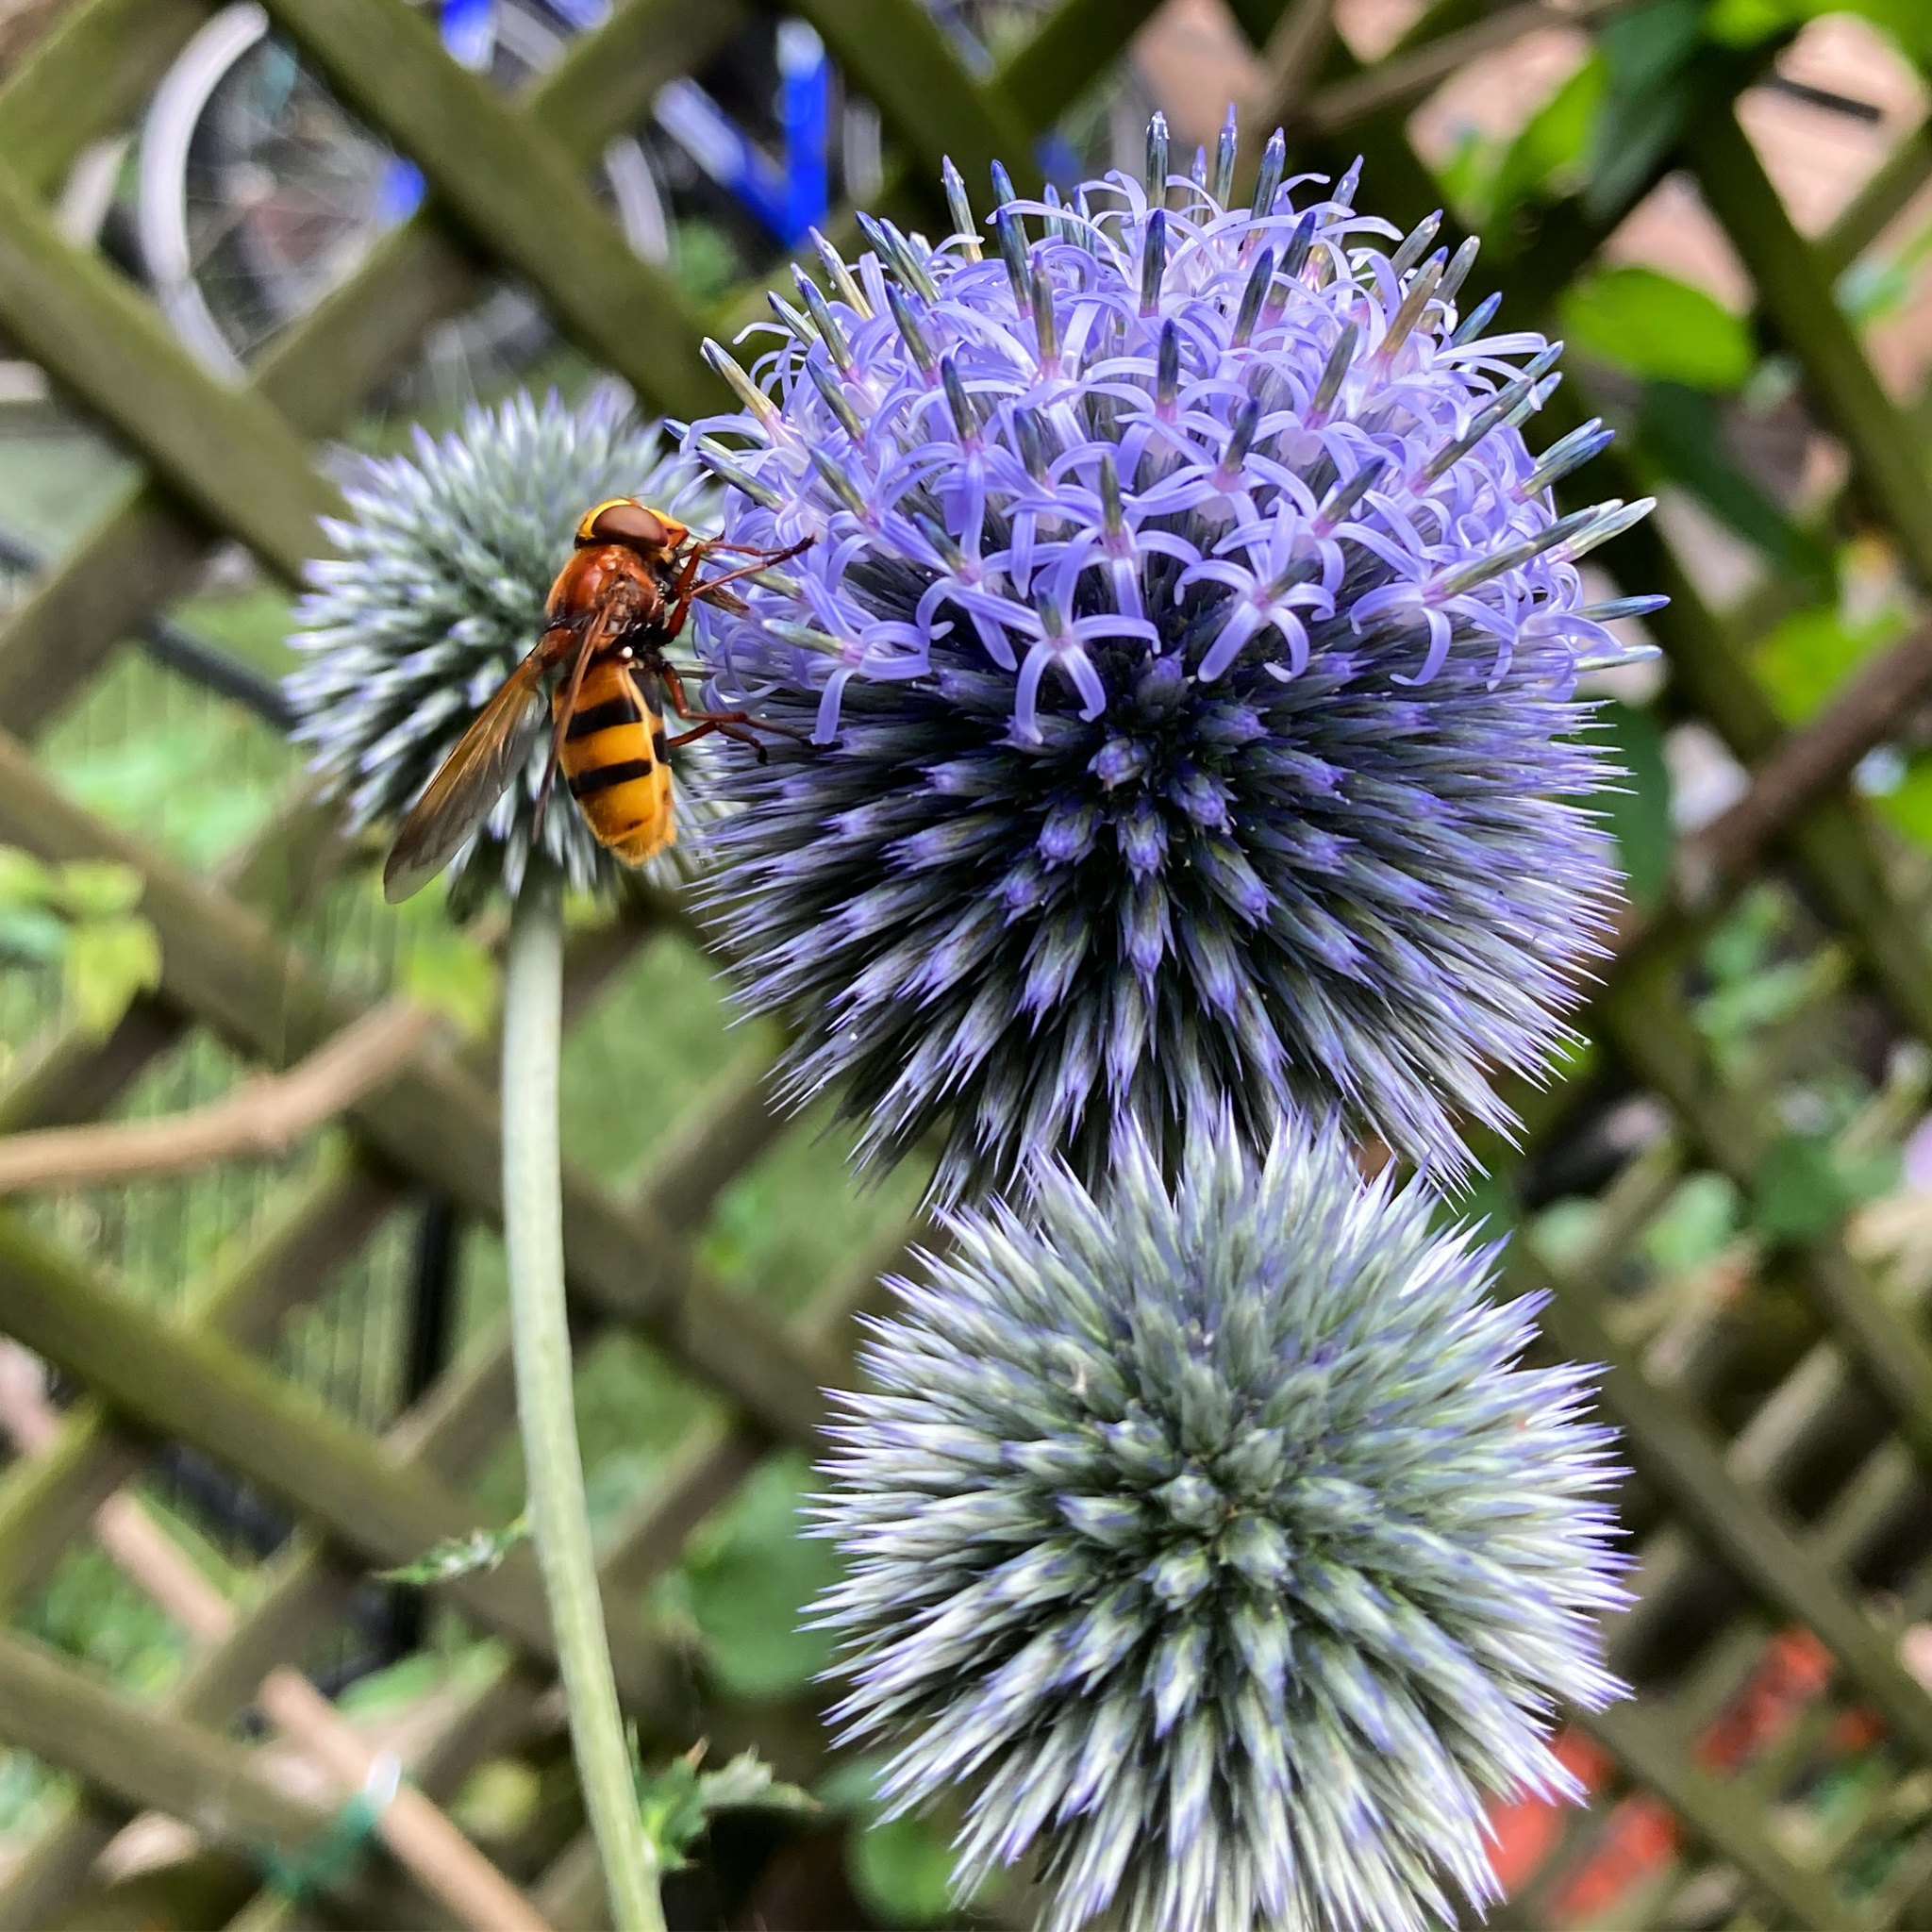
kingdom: Animalia
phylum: Arthropoda
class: Insecta
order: Diptera
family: Syrphidae
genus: Volucella
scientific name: Volucella zonaria
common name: Hornet hoverfly
